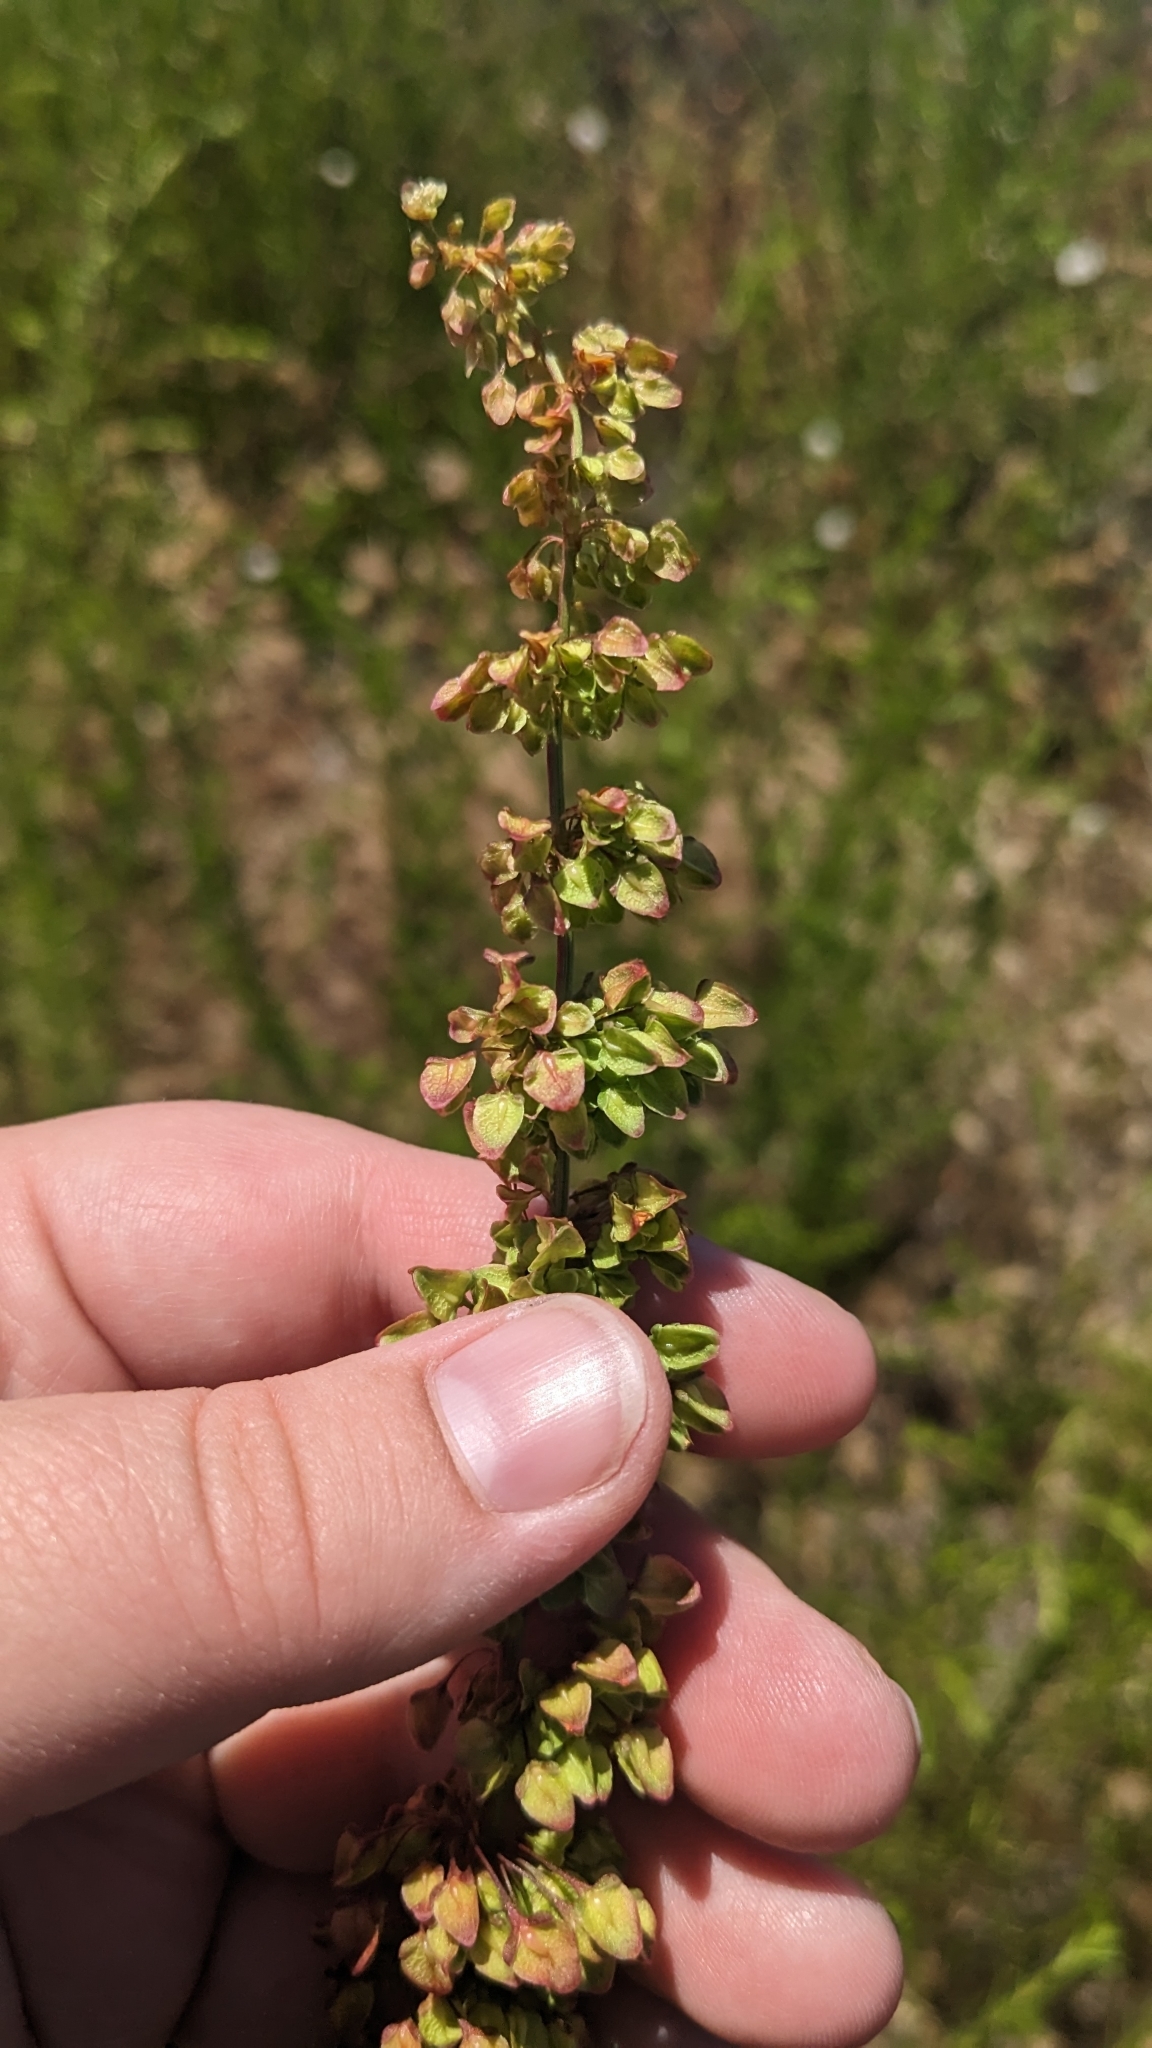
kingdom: Plantae
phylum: Tracheophyta
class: Magnoliopsida
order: Caryophyllales
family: Polygonaceae
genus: Rumex
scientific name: Rumex crispus
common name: Curled dock
